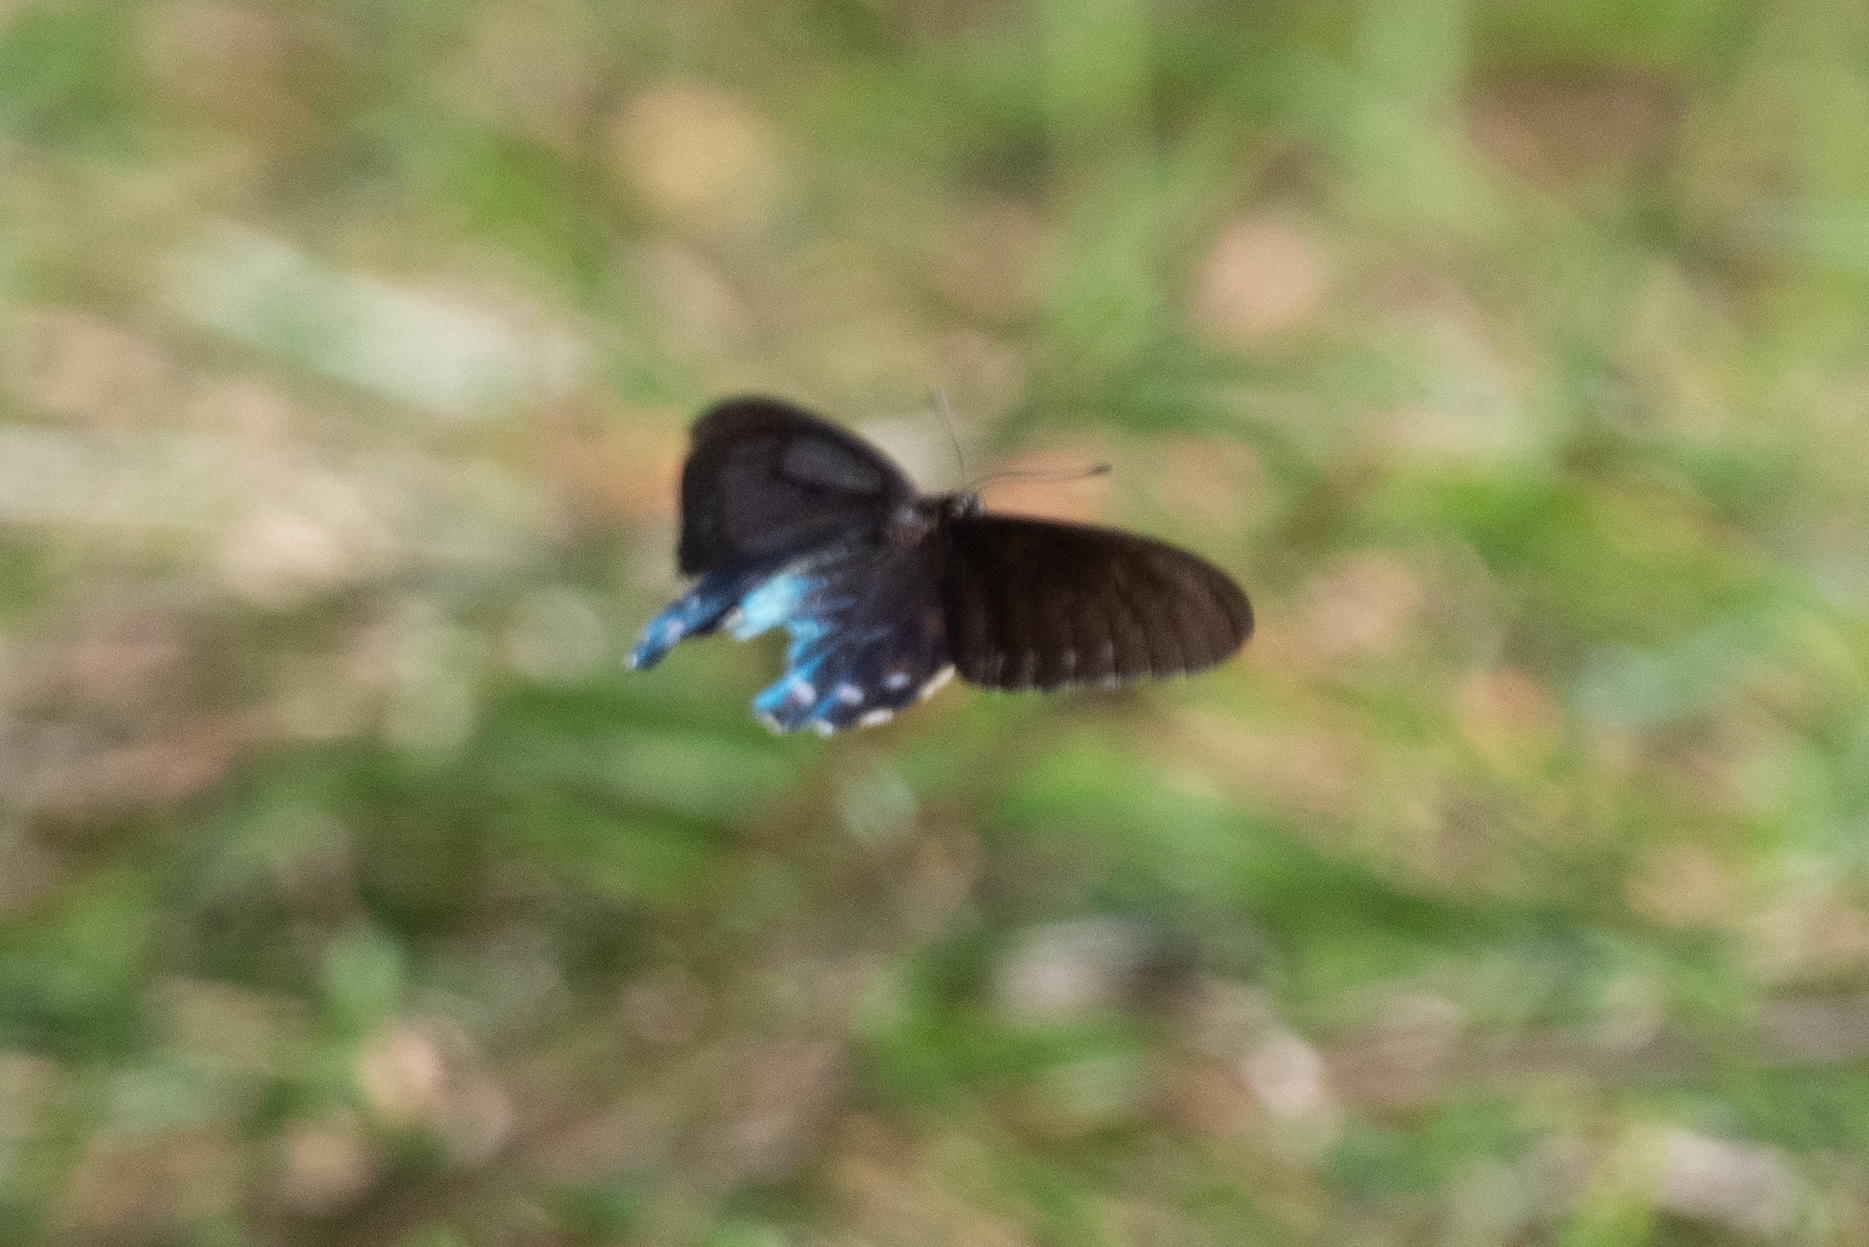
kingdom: Animalia
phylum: Arthropoda
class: Insecta
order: Lepidoptera
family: Papilionidae
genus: Battus
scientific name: Battus philenor
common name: Pipevine swallowtail
